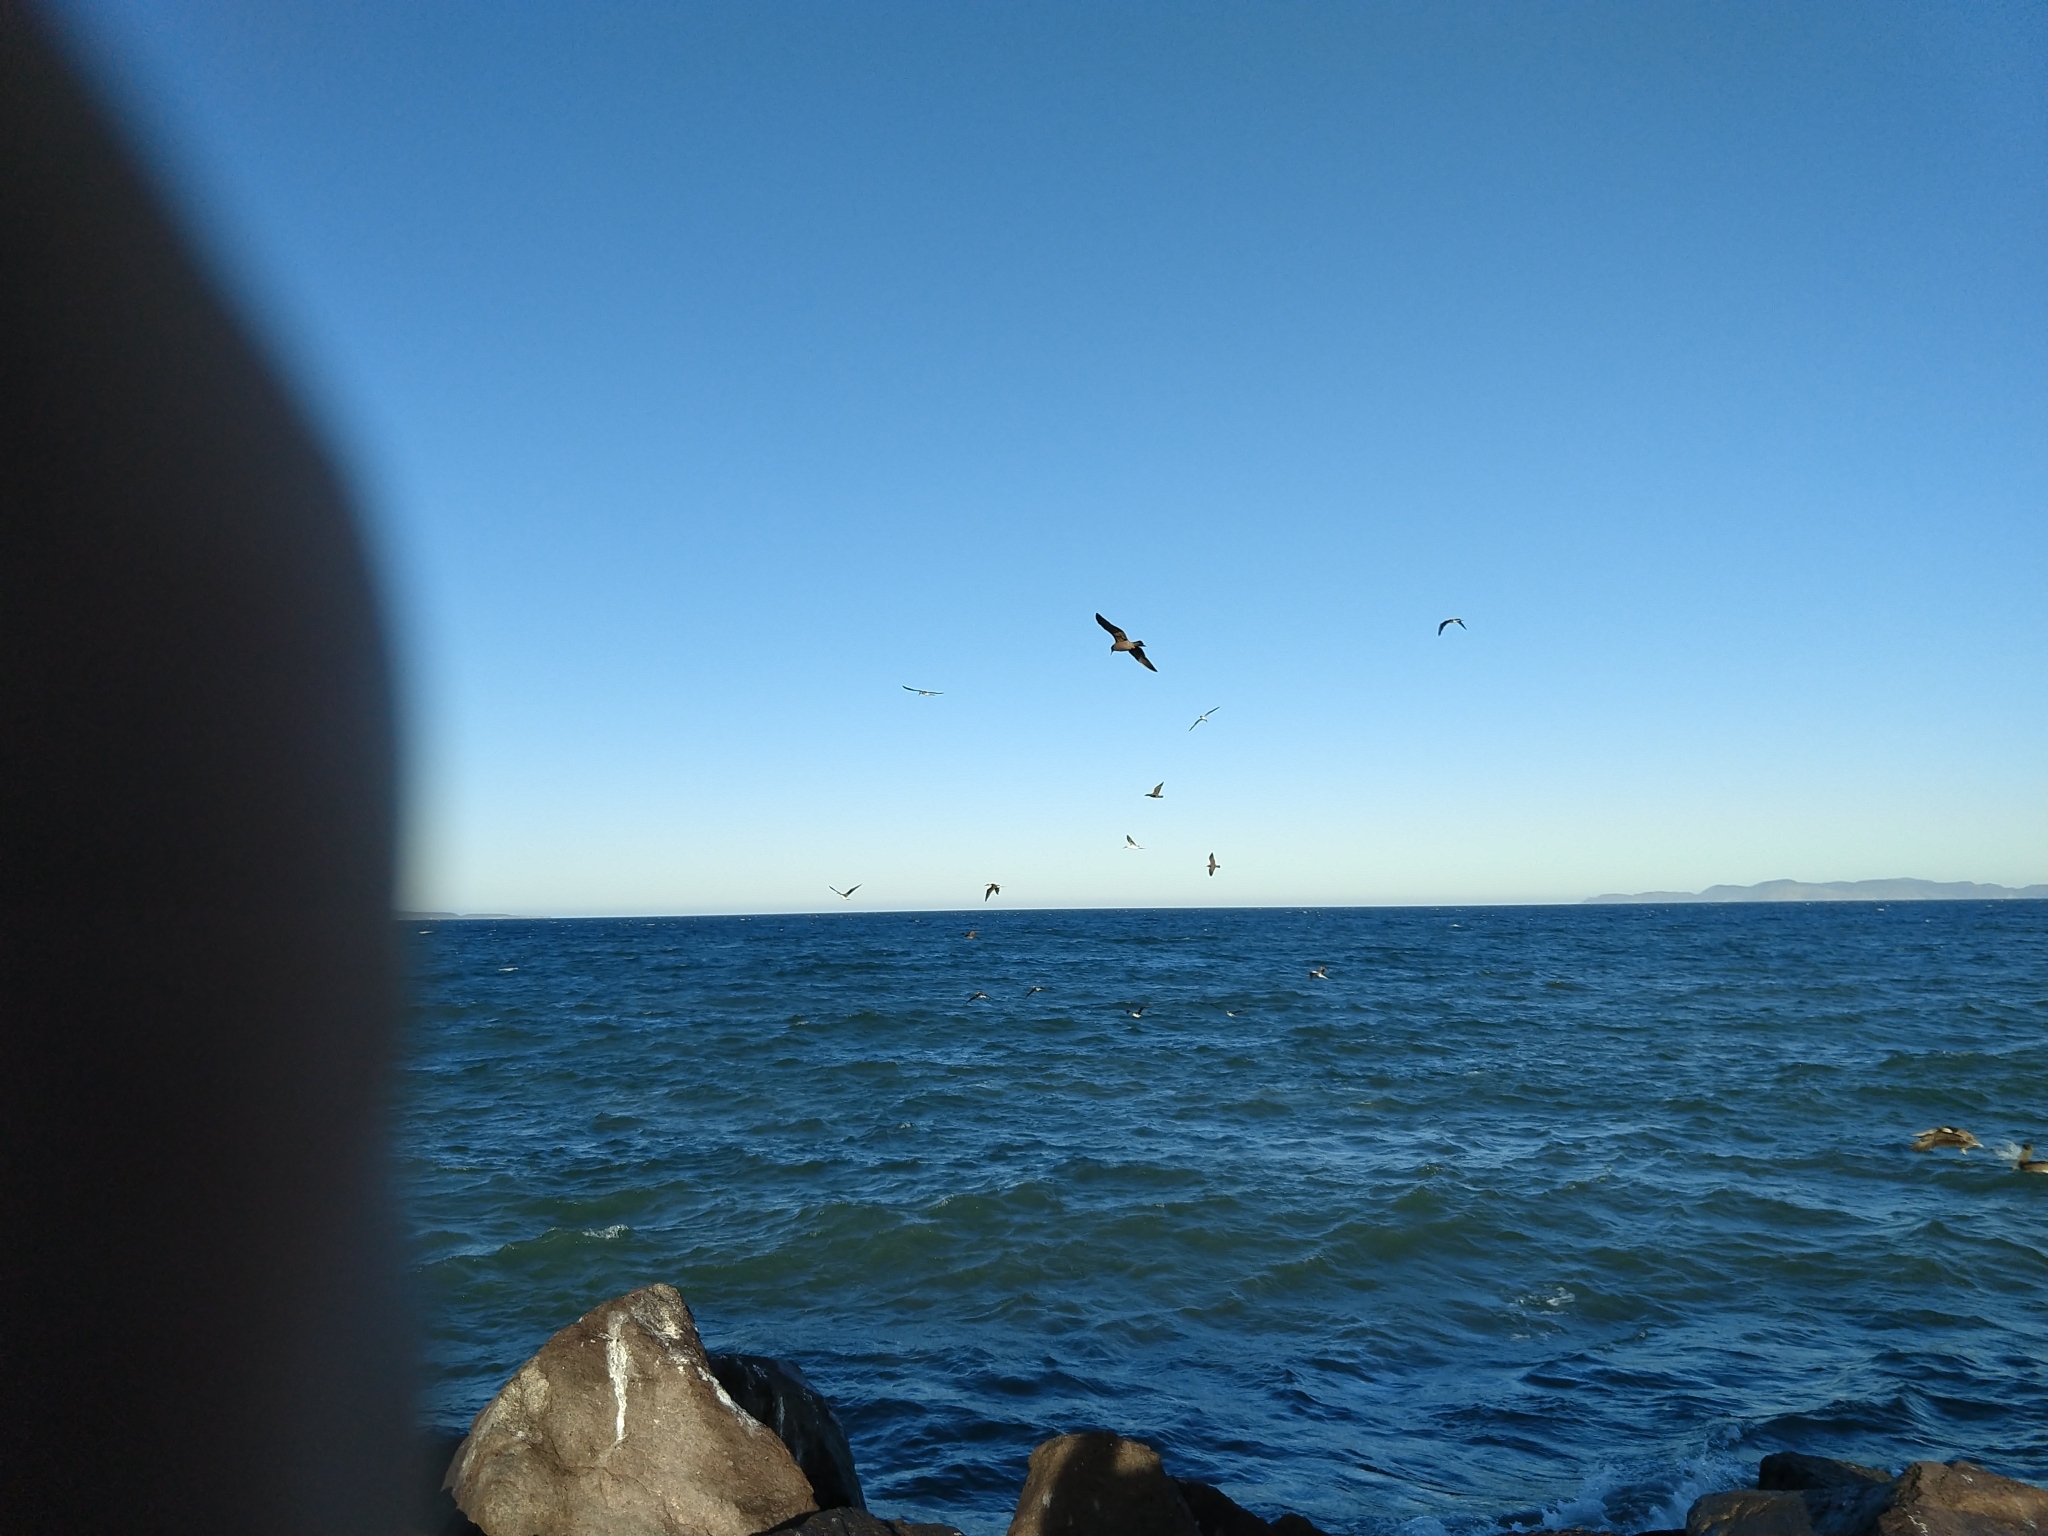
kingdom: Animalia
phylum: Chordata
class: Aves
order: Charadriiformes
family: Laridae
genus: Larus
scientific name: Larus heermanni
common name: Heermann's gull
